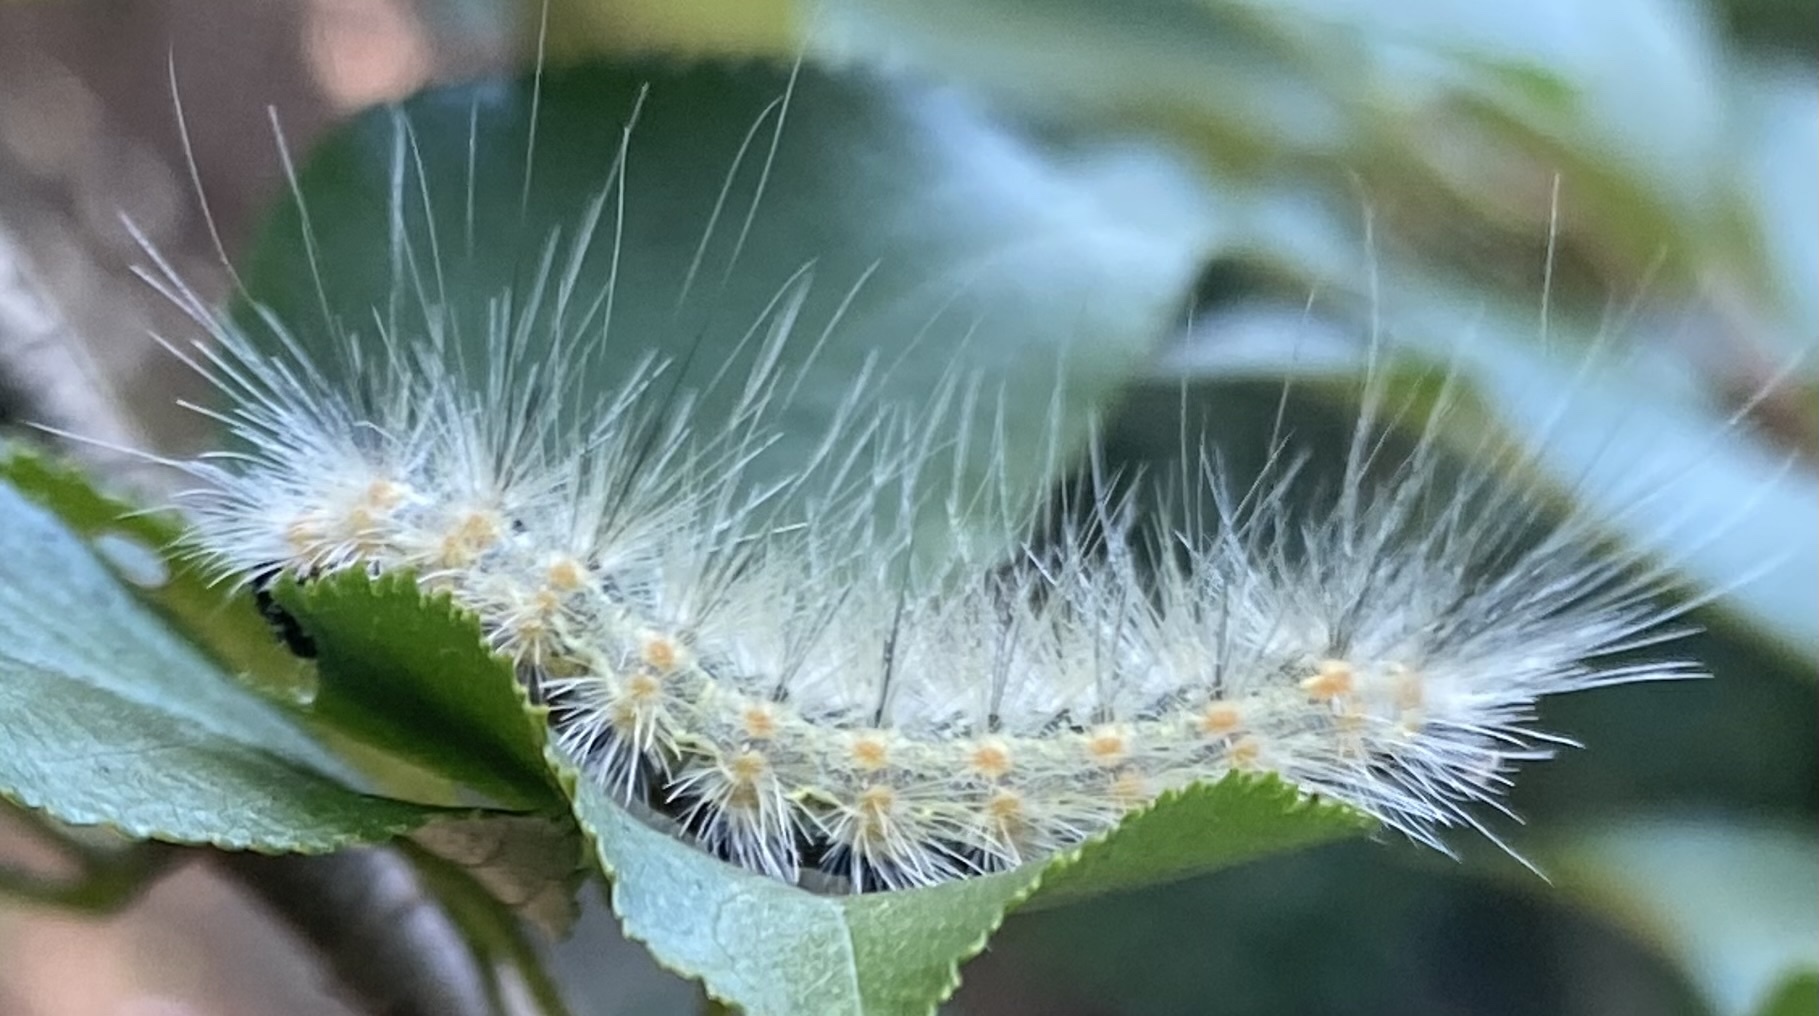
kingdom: Animalia
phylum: Arthropoda
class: Insecta
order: Lepidoptera
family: Erebidae
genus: Hyphantria
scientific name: Hyphantria cunea
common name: American white moth
